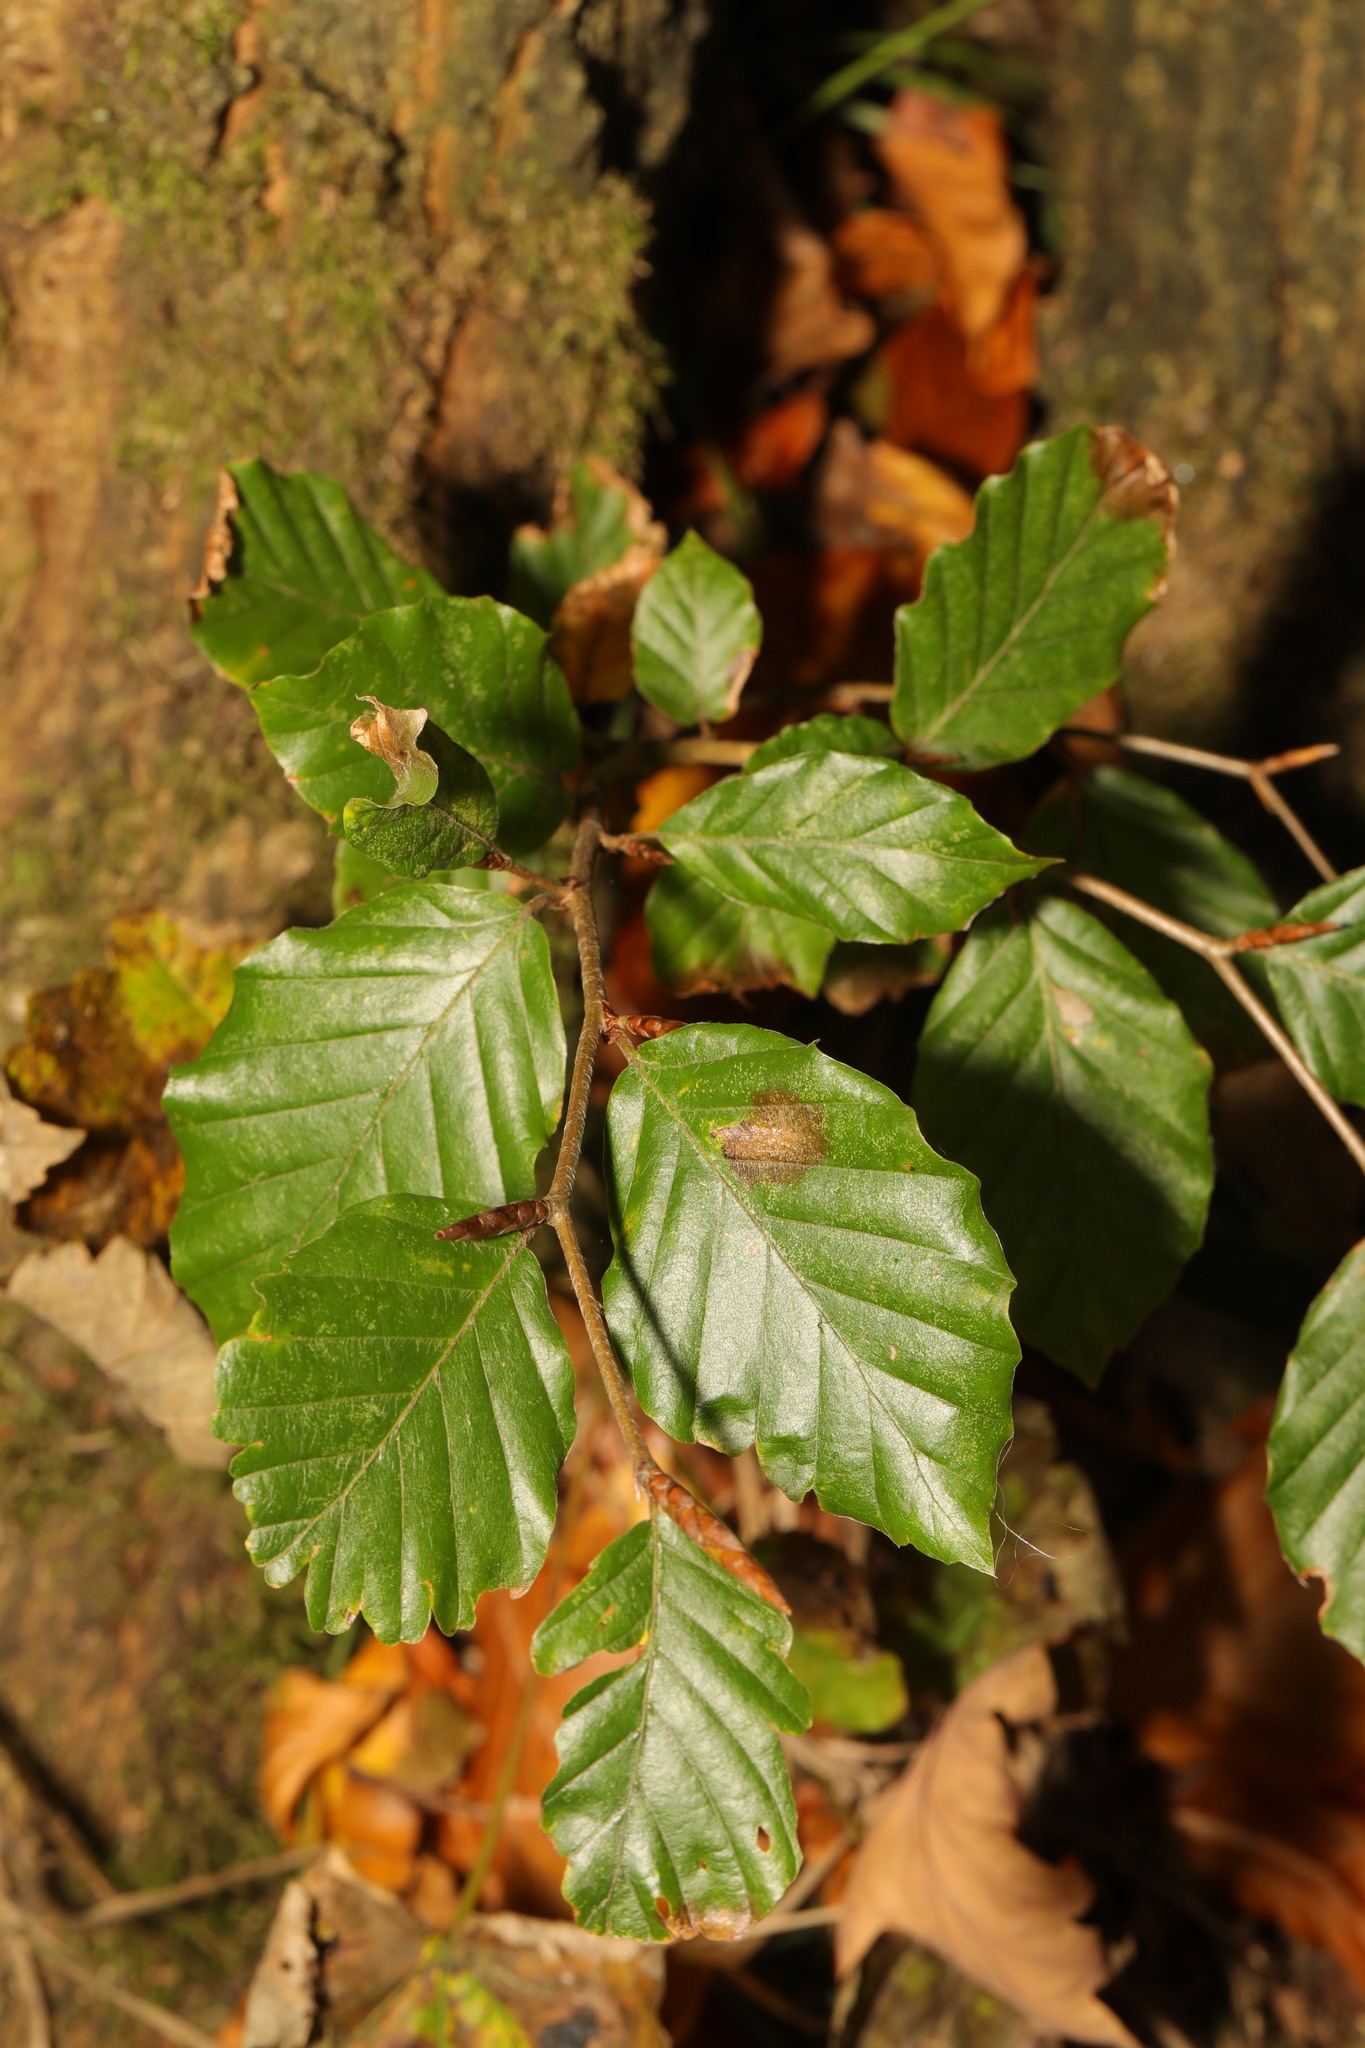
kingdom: Plantae
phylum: Tracheophyta
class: Magnoliopsida
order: Fagales
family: Fagaceae
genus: Fagus
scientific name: Fagus sylvatica
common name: Beech
